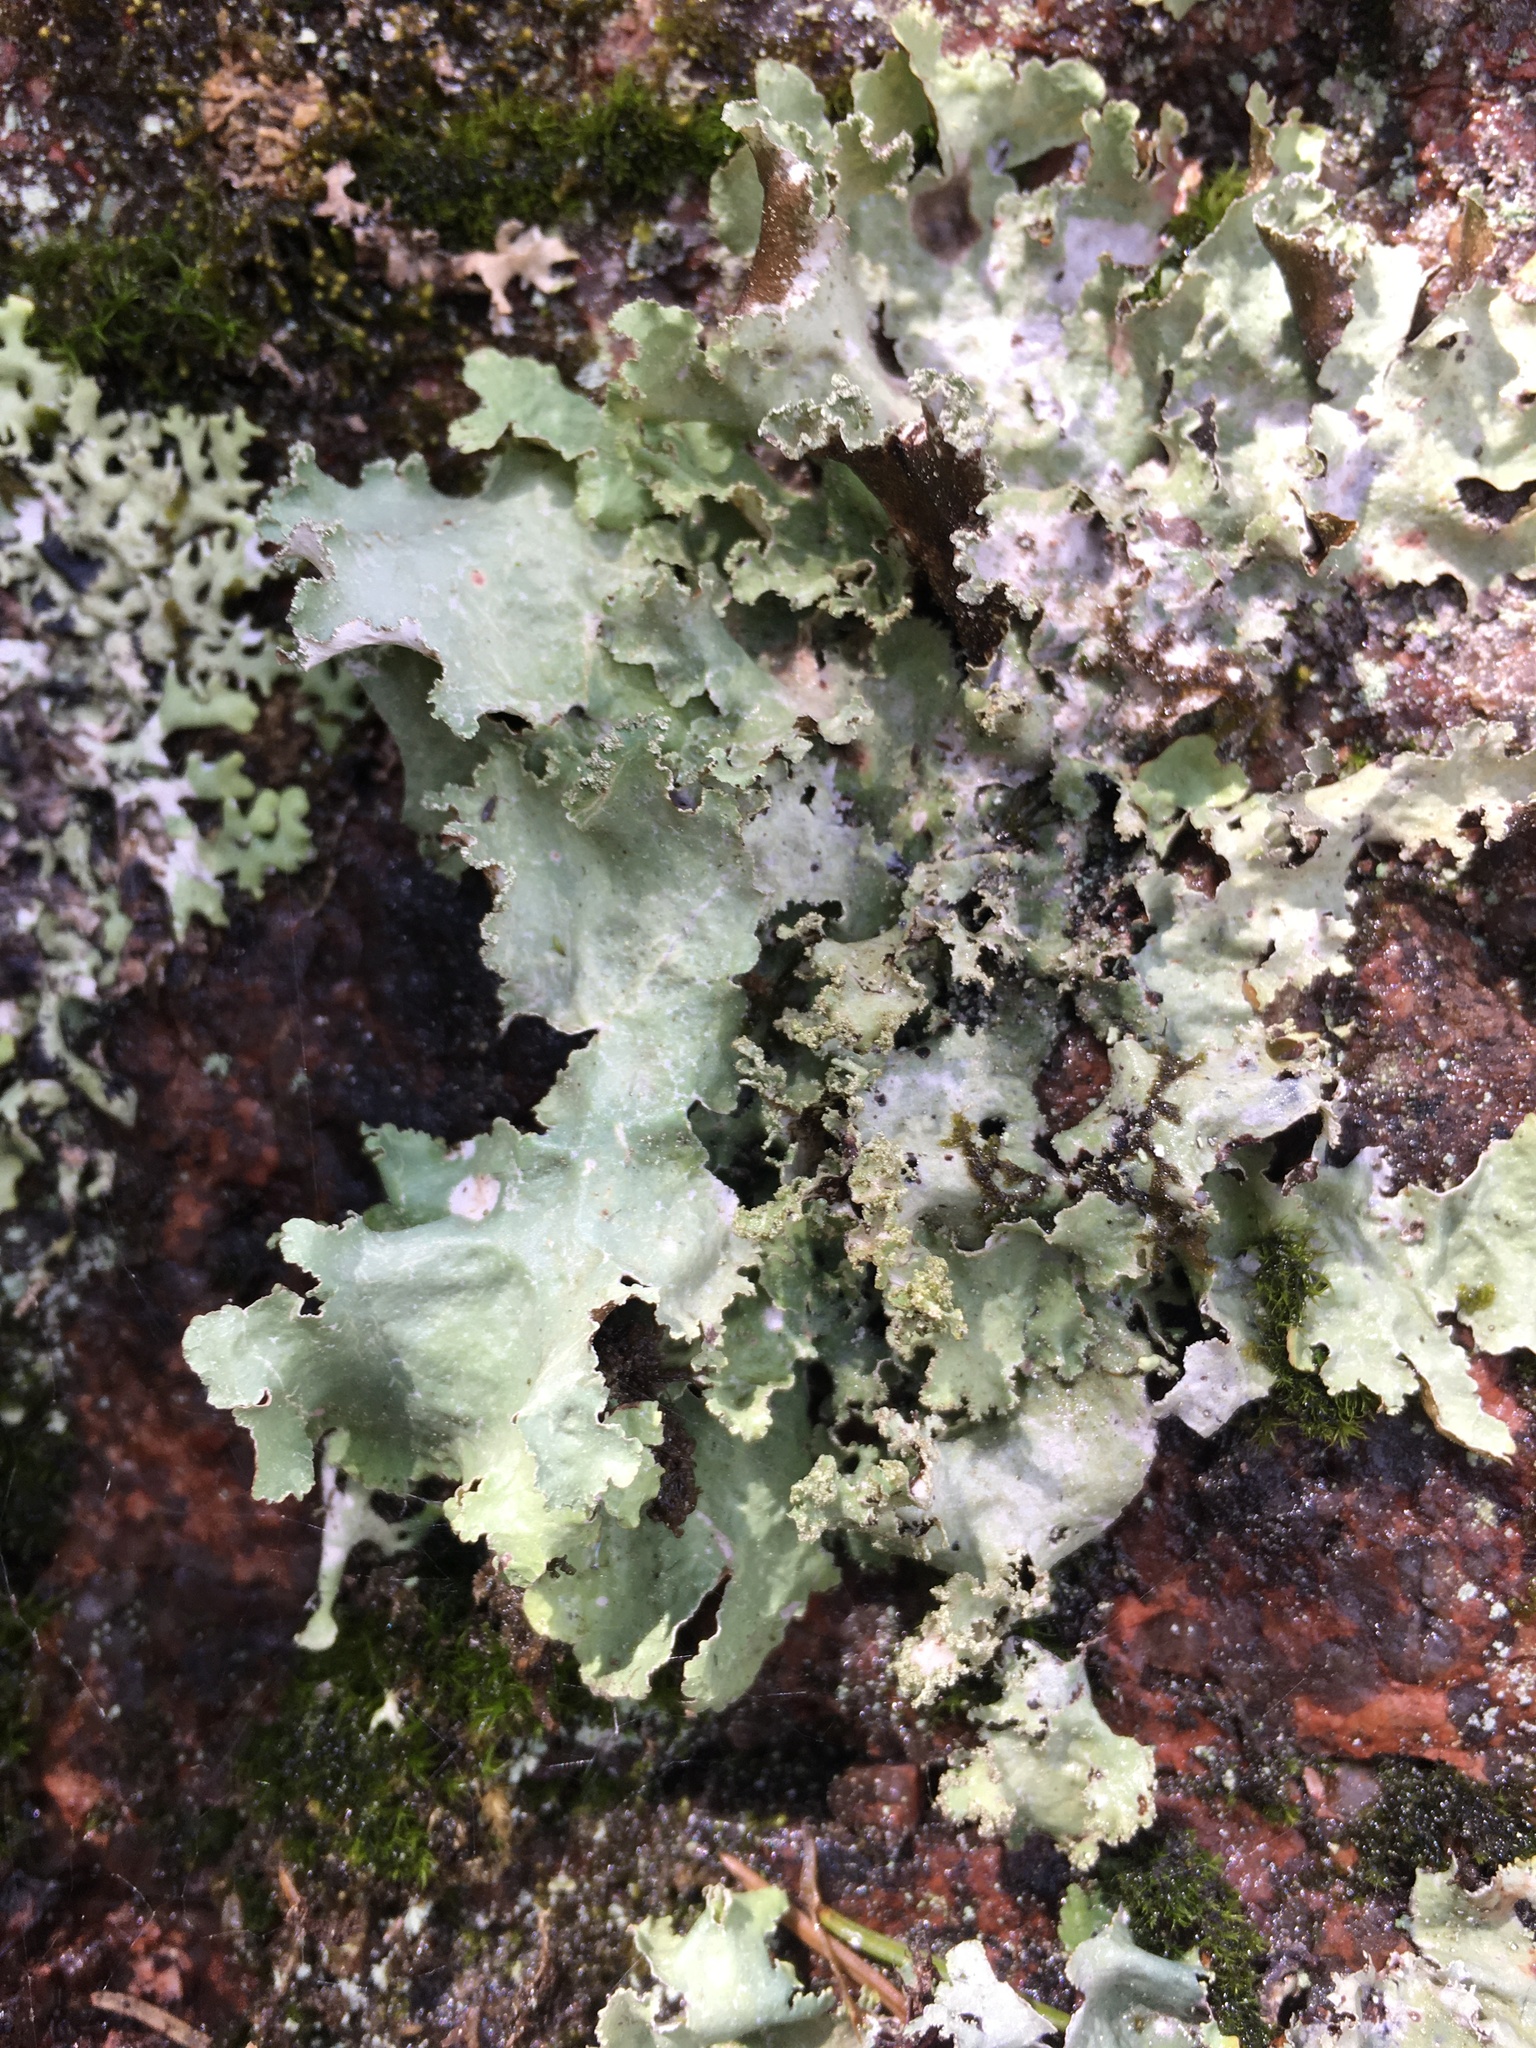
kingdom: Fungi
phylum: Ascomycota
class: Lecanoromycetes
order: Lecanorales
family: Parmeliaceae
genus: Platismatia
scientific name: Platismatia glauca
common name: Varied rag lichen
